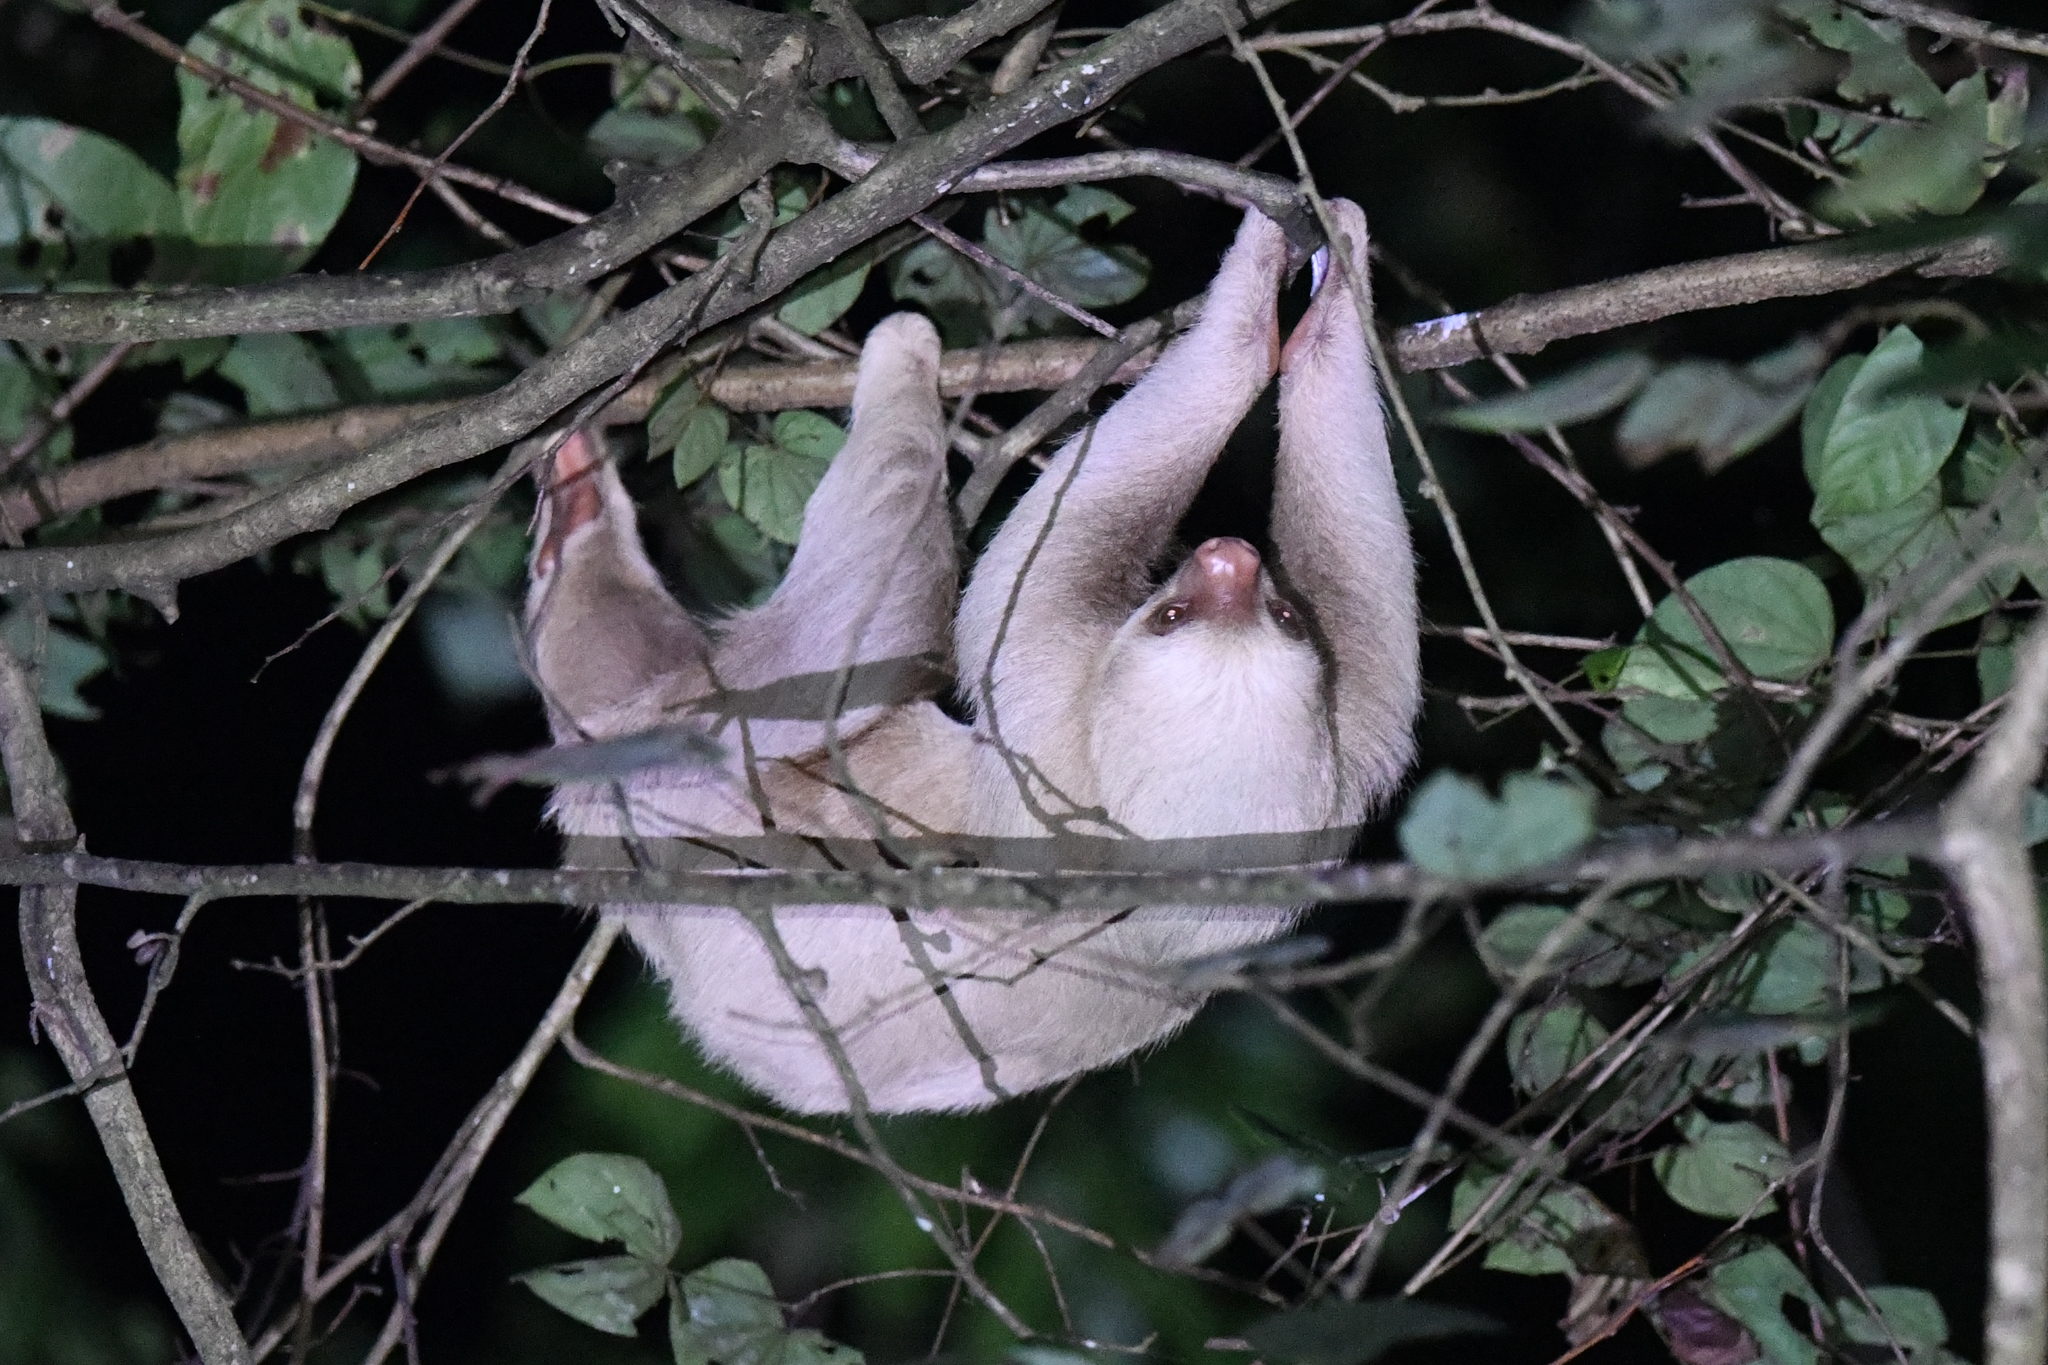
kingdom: Animalia
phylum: Chordata
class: Mammalia
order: Pilosa
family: Megalonychidae
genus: Choloepus
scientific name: Choloepus hoffmanni
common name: Hoffmann's two-toed sloth
